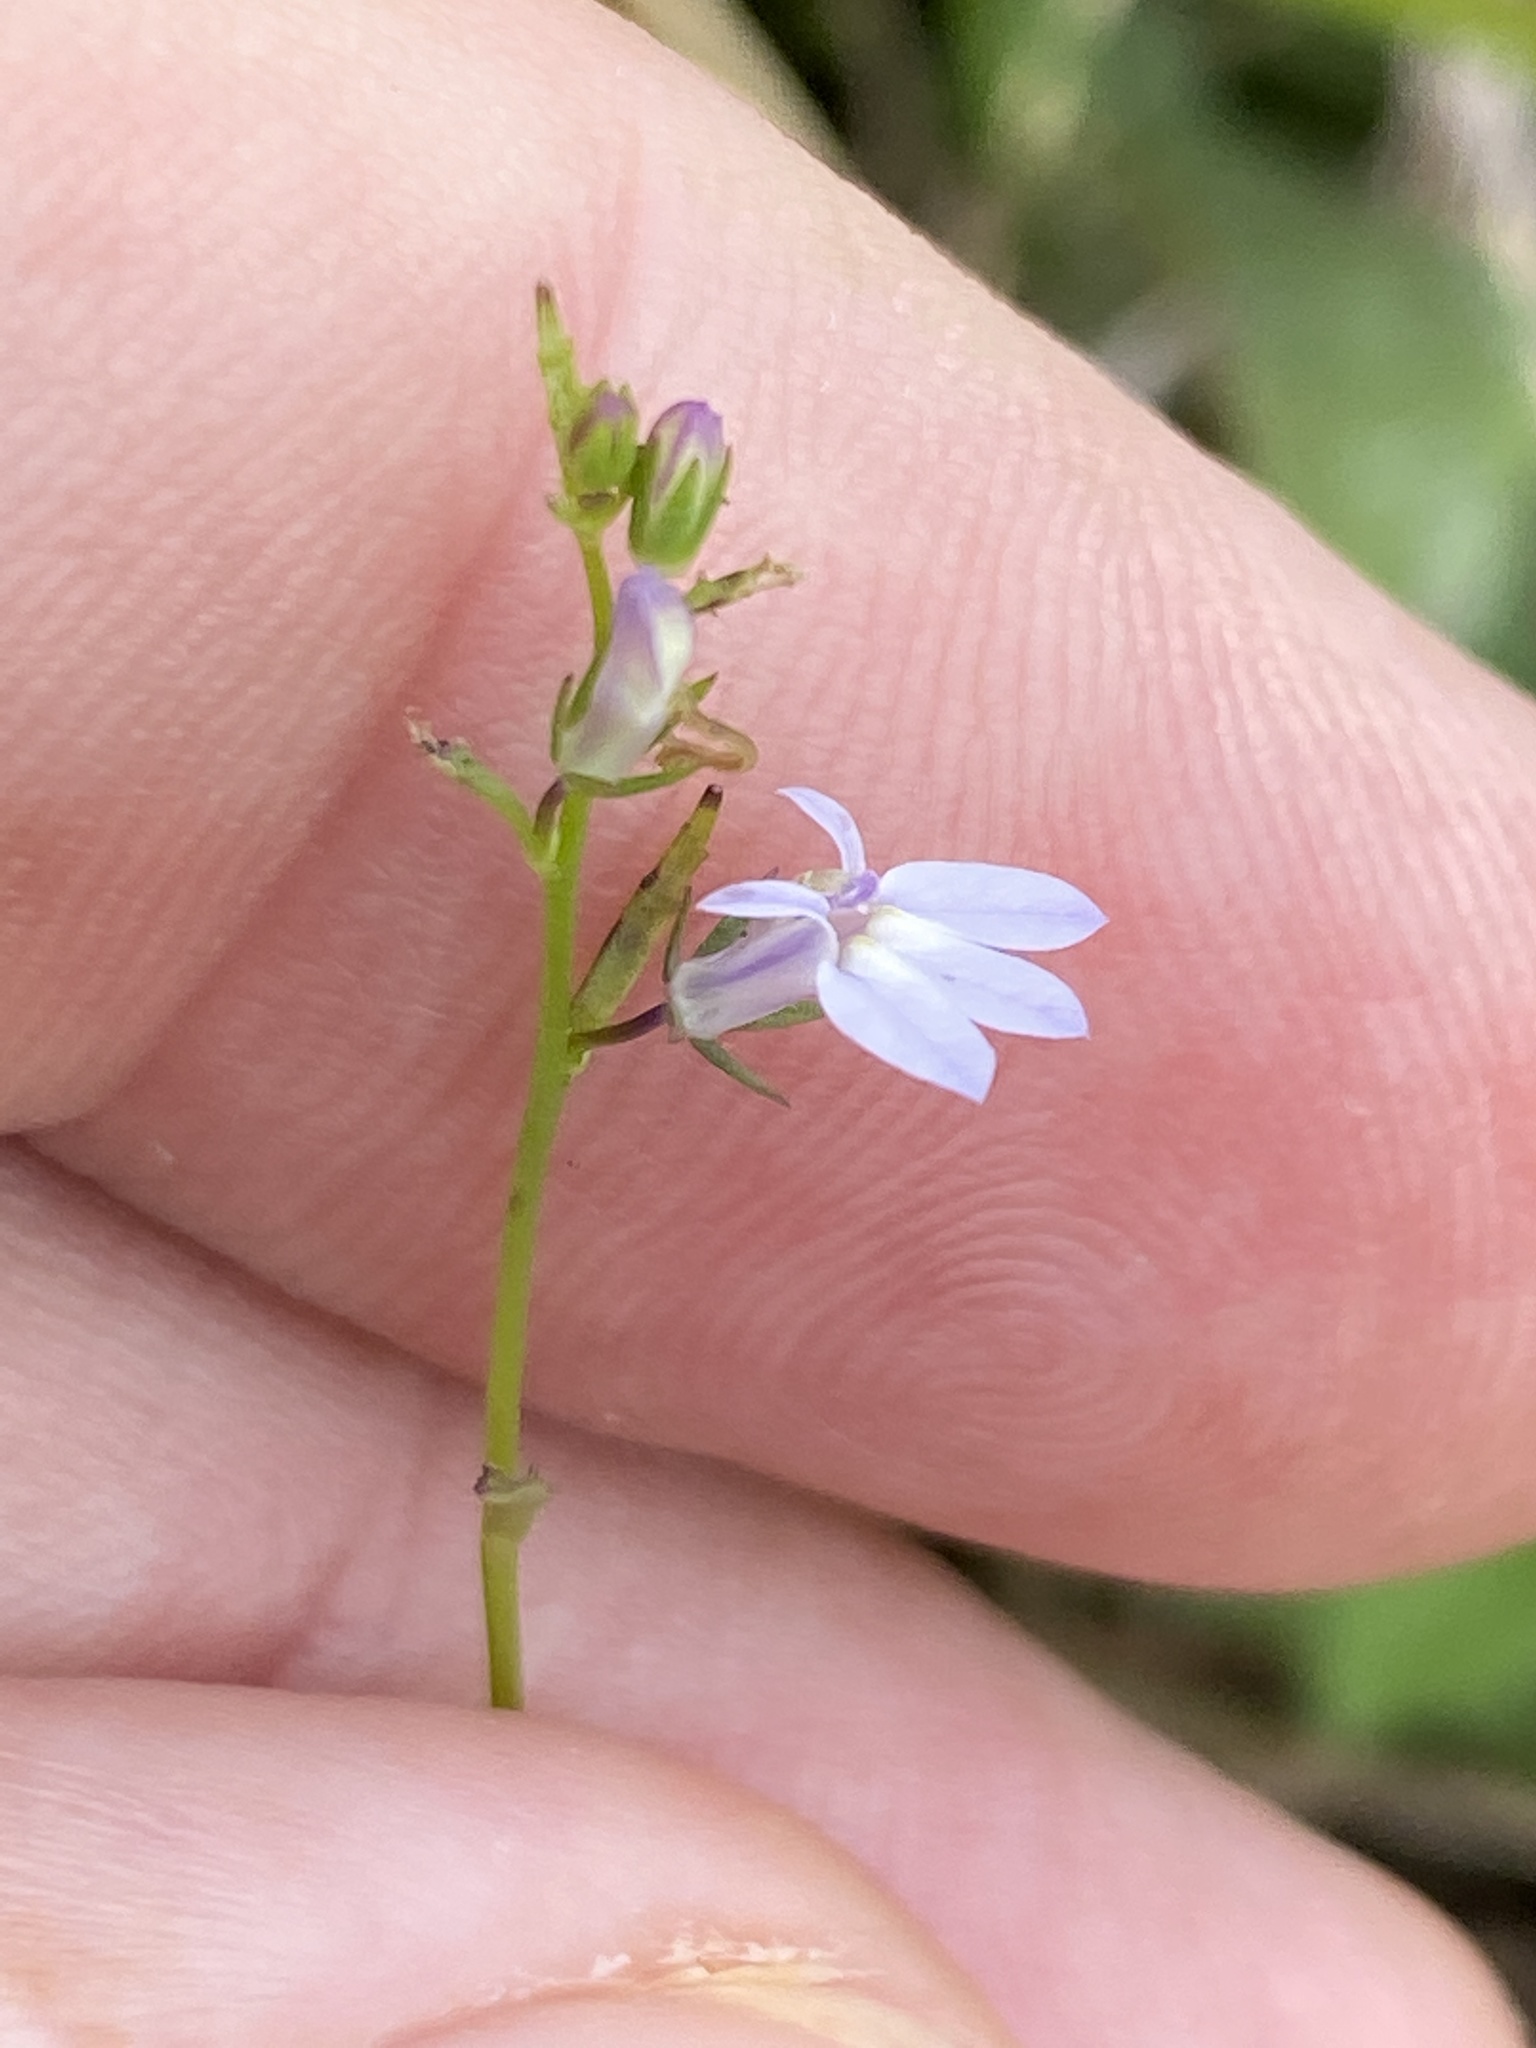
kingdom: Plantae
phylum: Tracheophyta
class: Magnoliopsida
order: Asterales
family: Campanulaceae
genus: Lobelia
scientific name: Lobelia nuttallii
